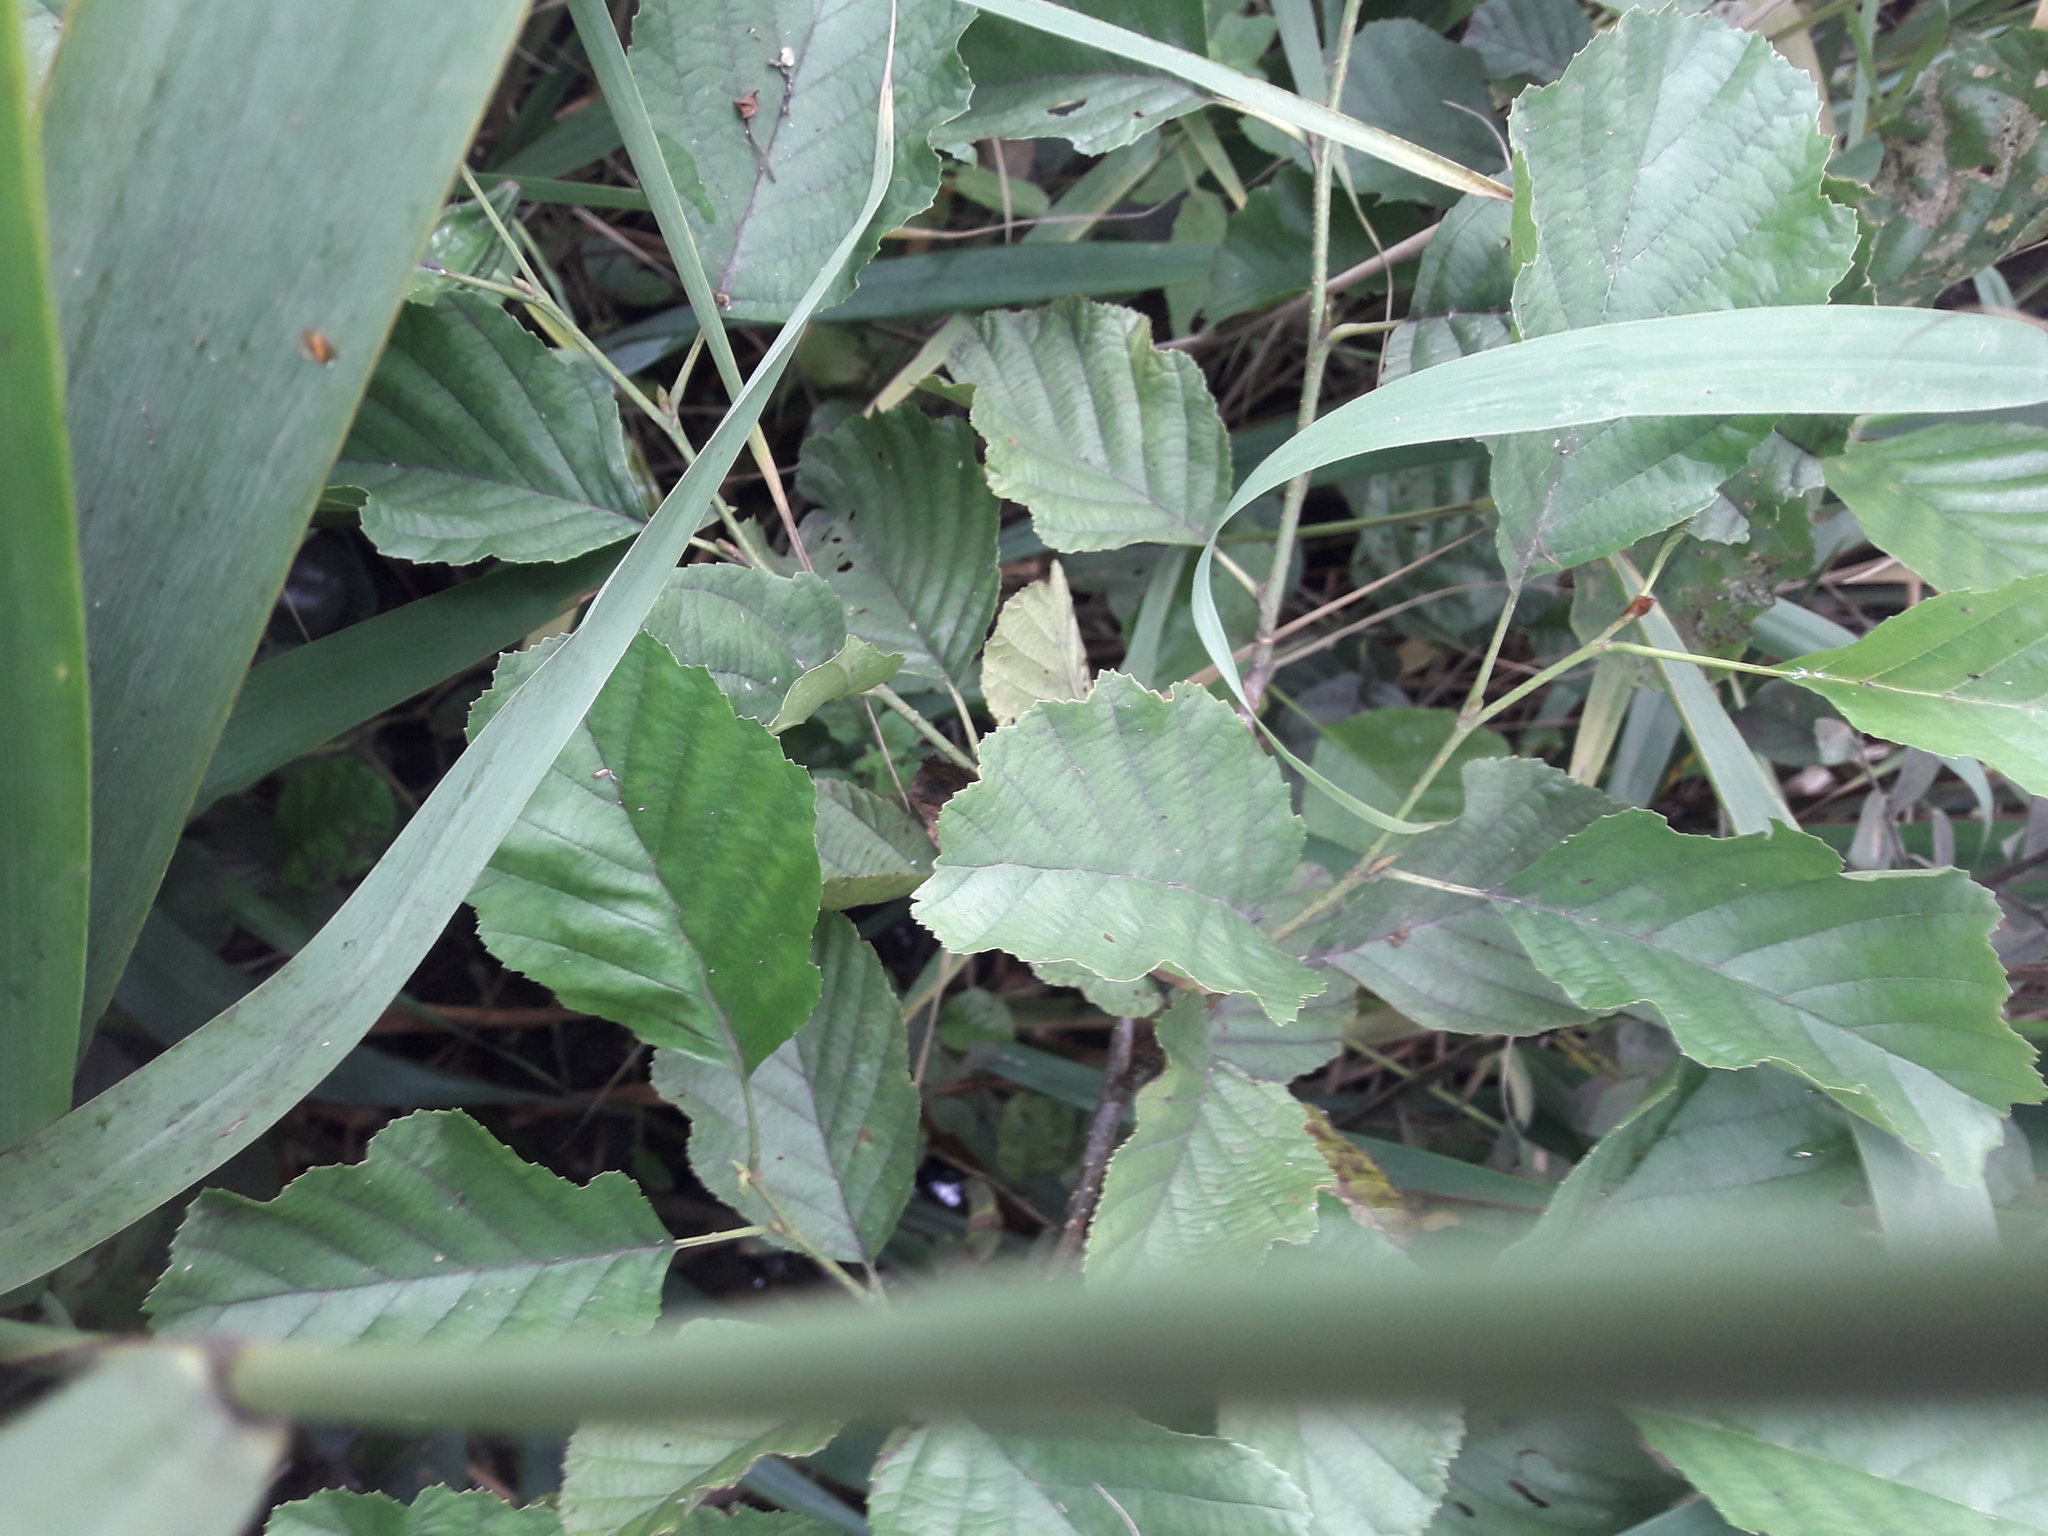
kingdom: Plantae
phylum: Tracheophyta
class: Magnoliopsida
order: Fagales
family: Betulaceae
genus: Alnus
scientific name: Alnus glutinosa
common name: Black alder
